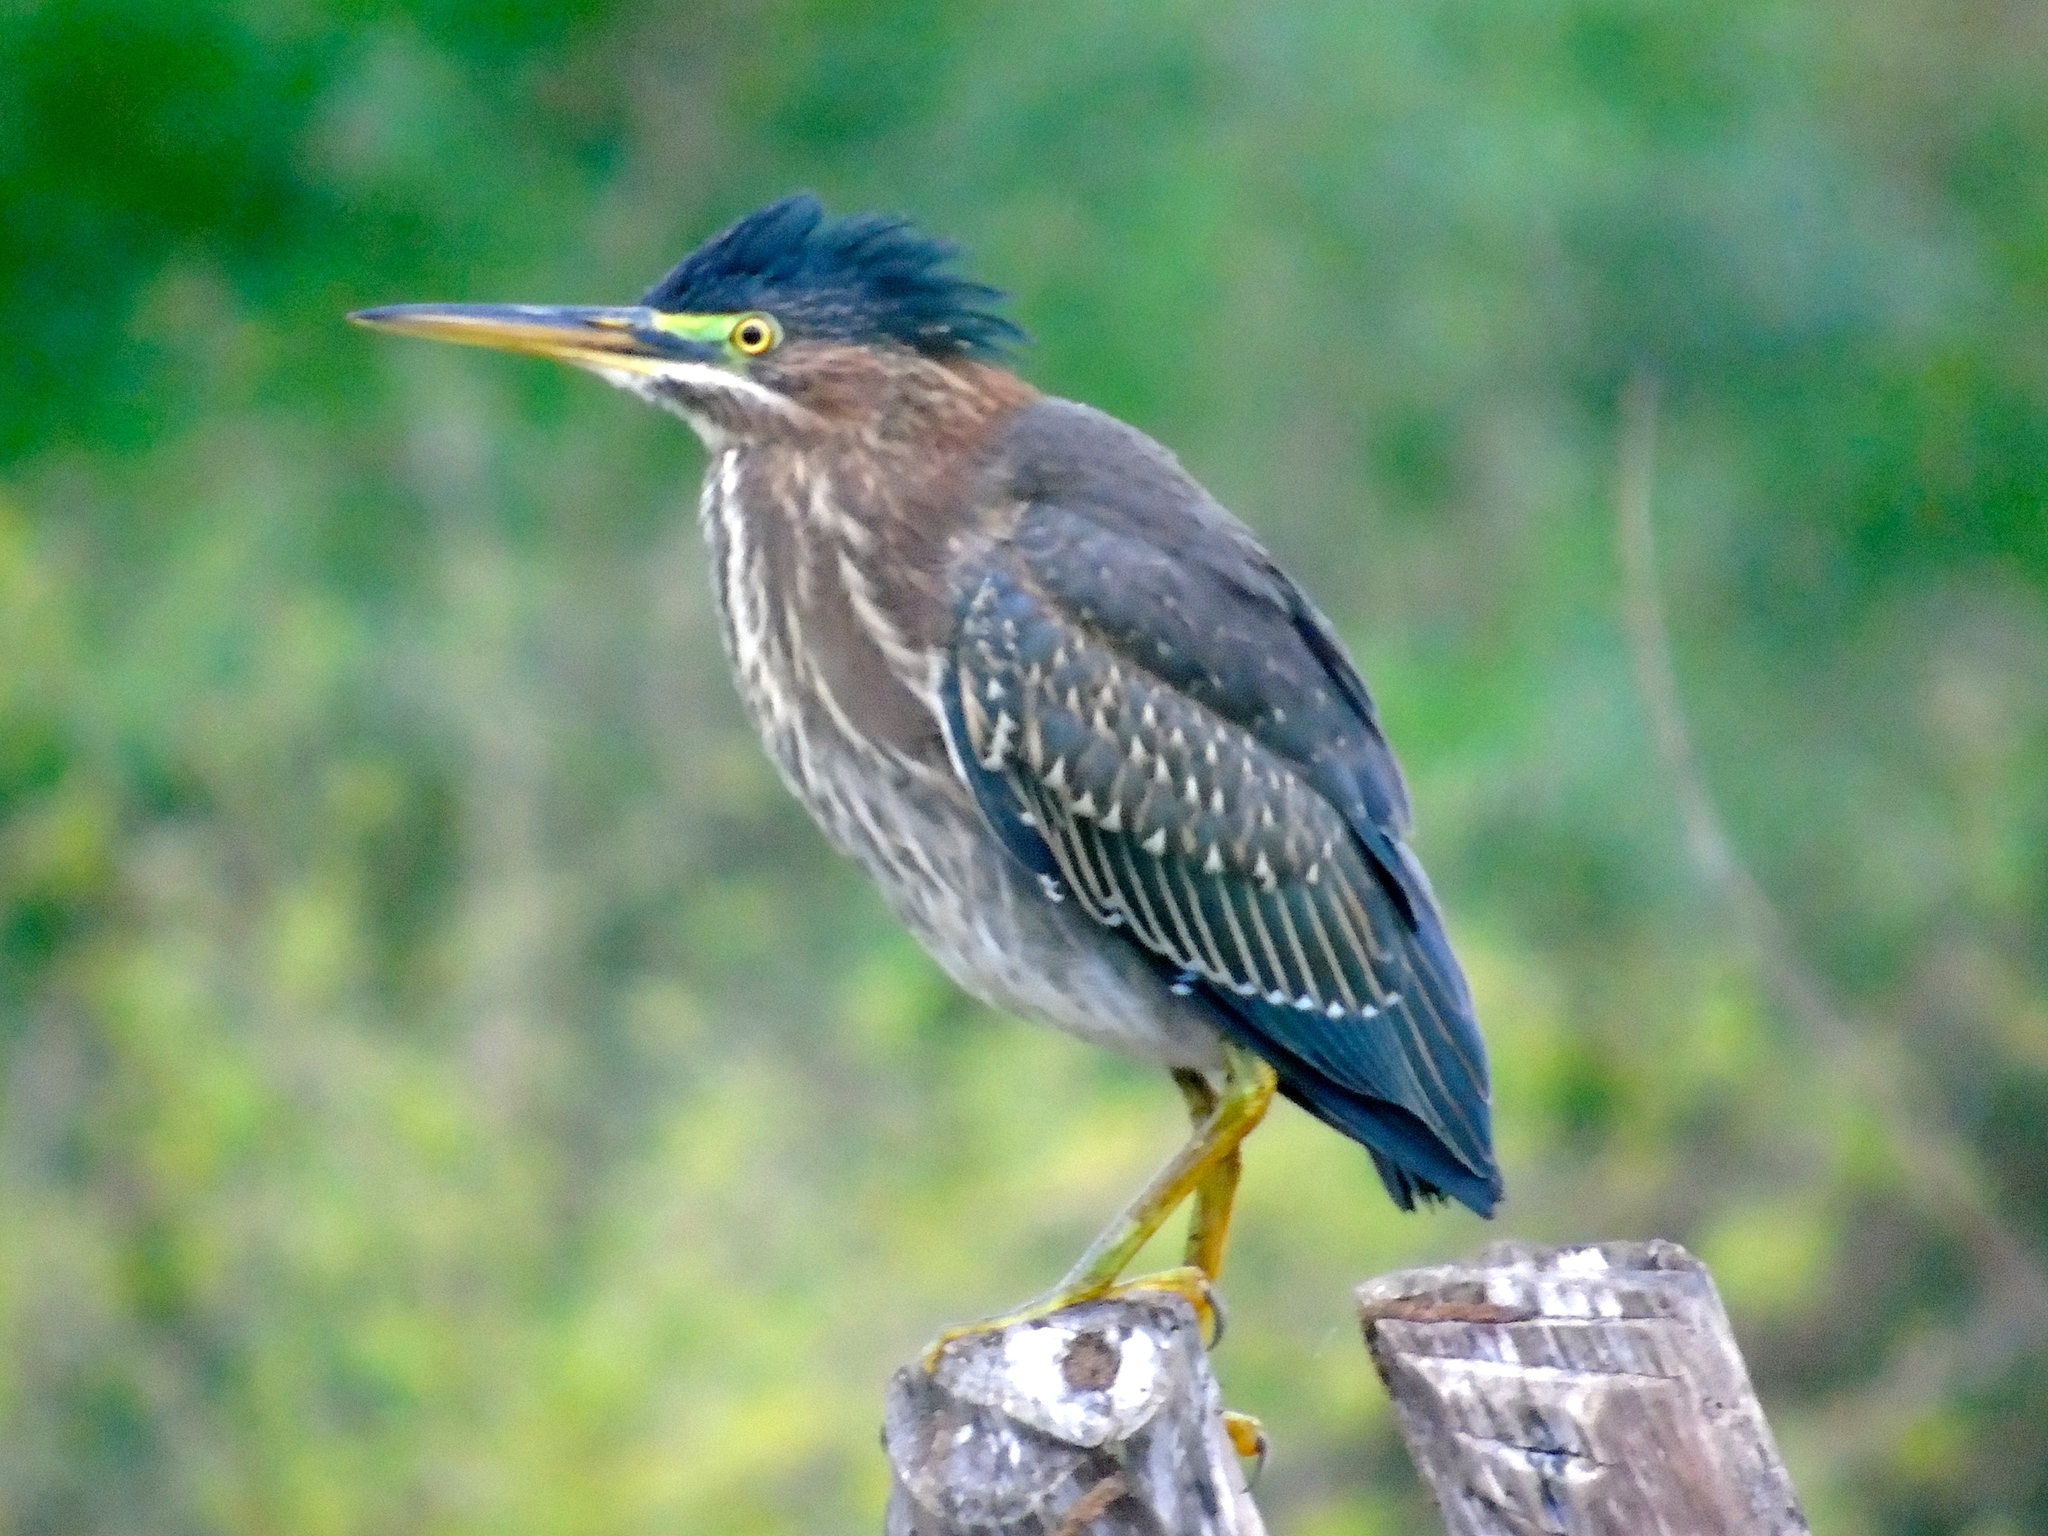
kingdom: Animalia
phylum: Chordata
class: Aves
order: Pelecaniformes
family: Ardeidae
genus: Butorides
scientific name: Butorides virescens
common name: Green heron
